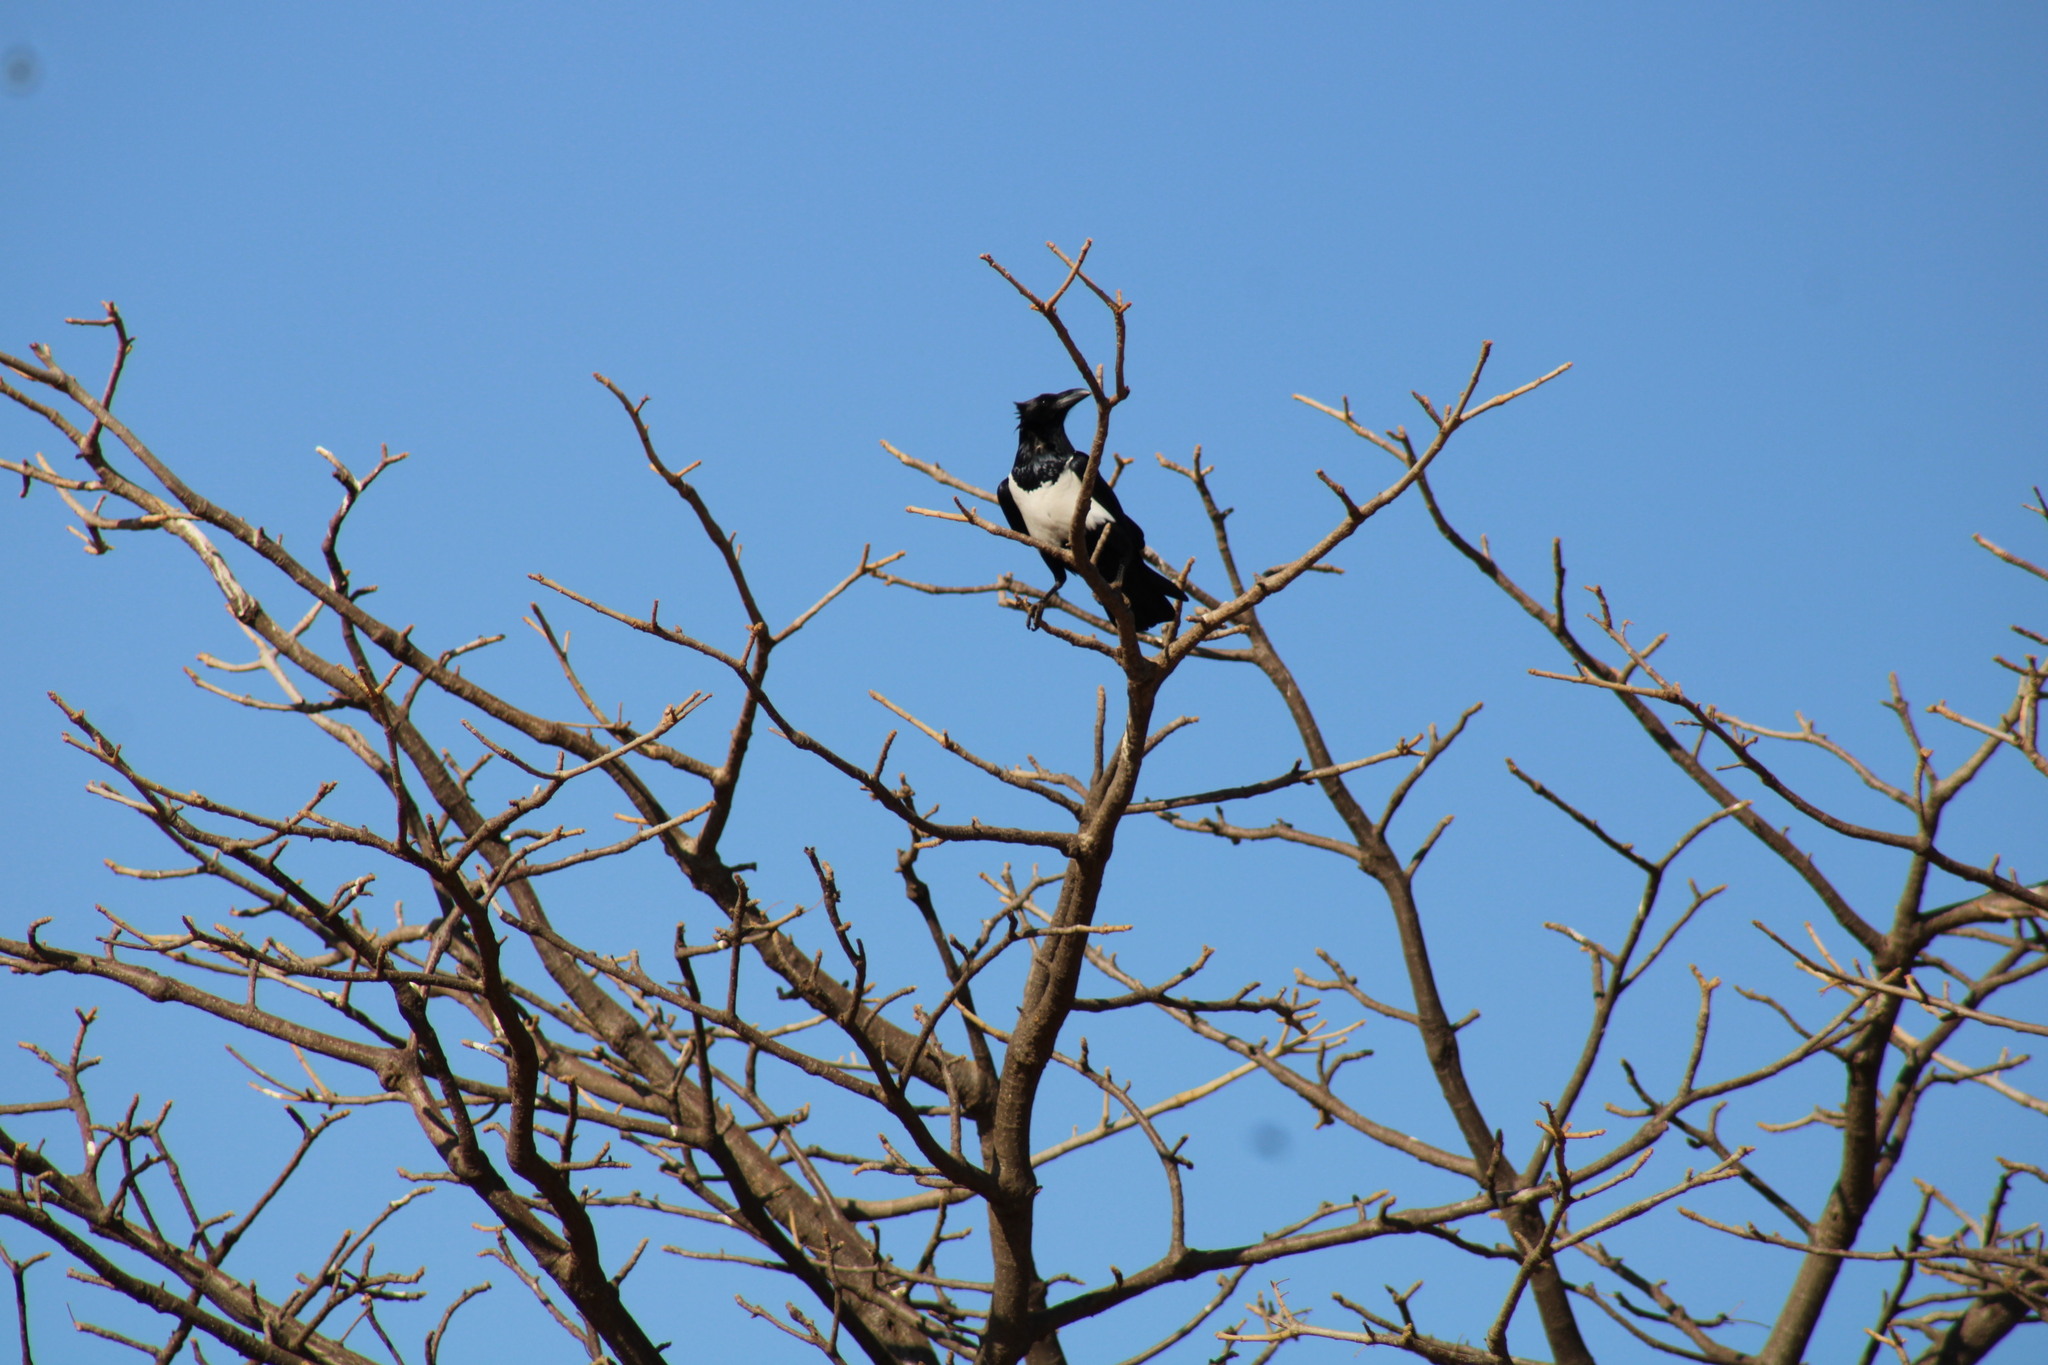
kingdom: Animalia
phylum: Chordata
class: Aves
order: Passeriformes
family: Corvidae
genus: Corvus
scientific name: Corvus albus
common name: Pied crow
